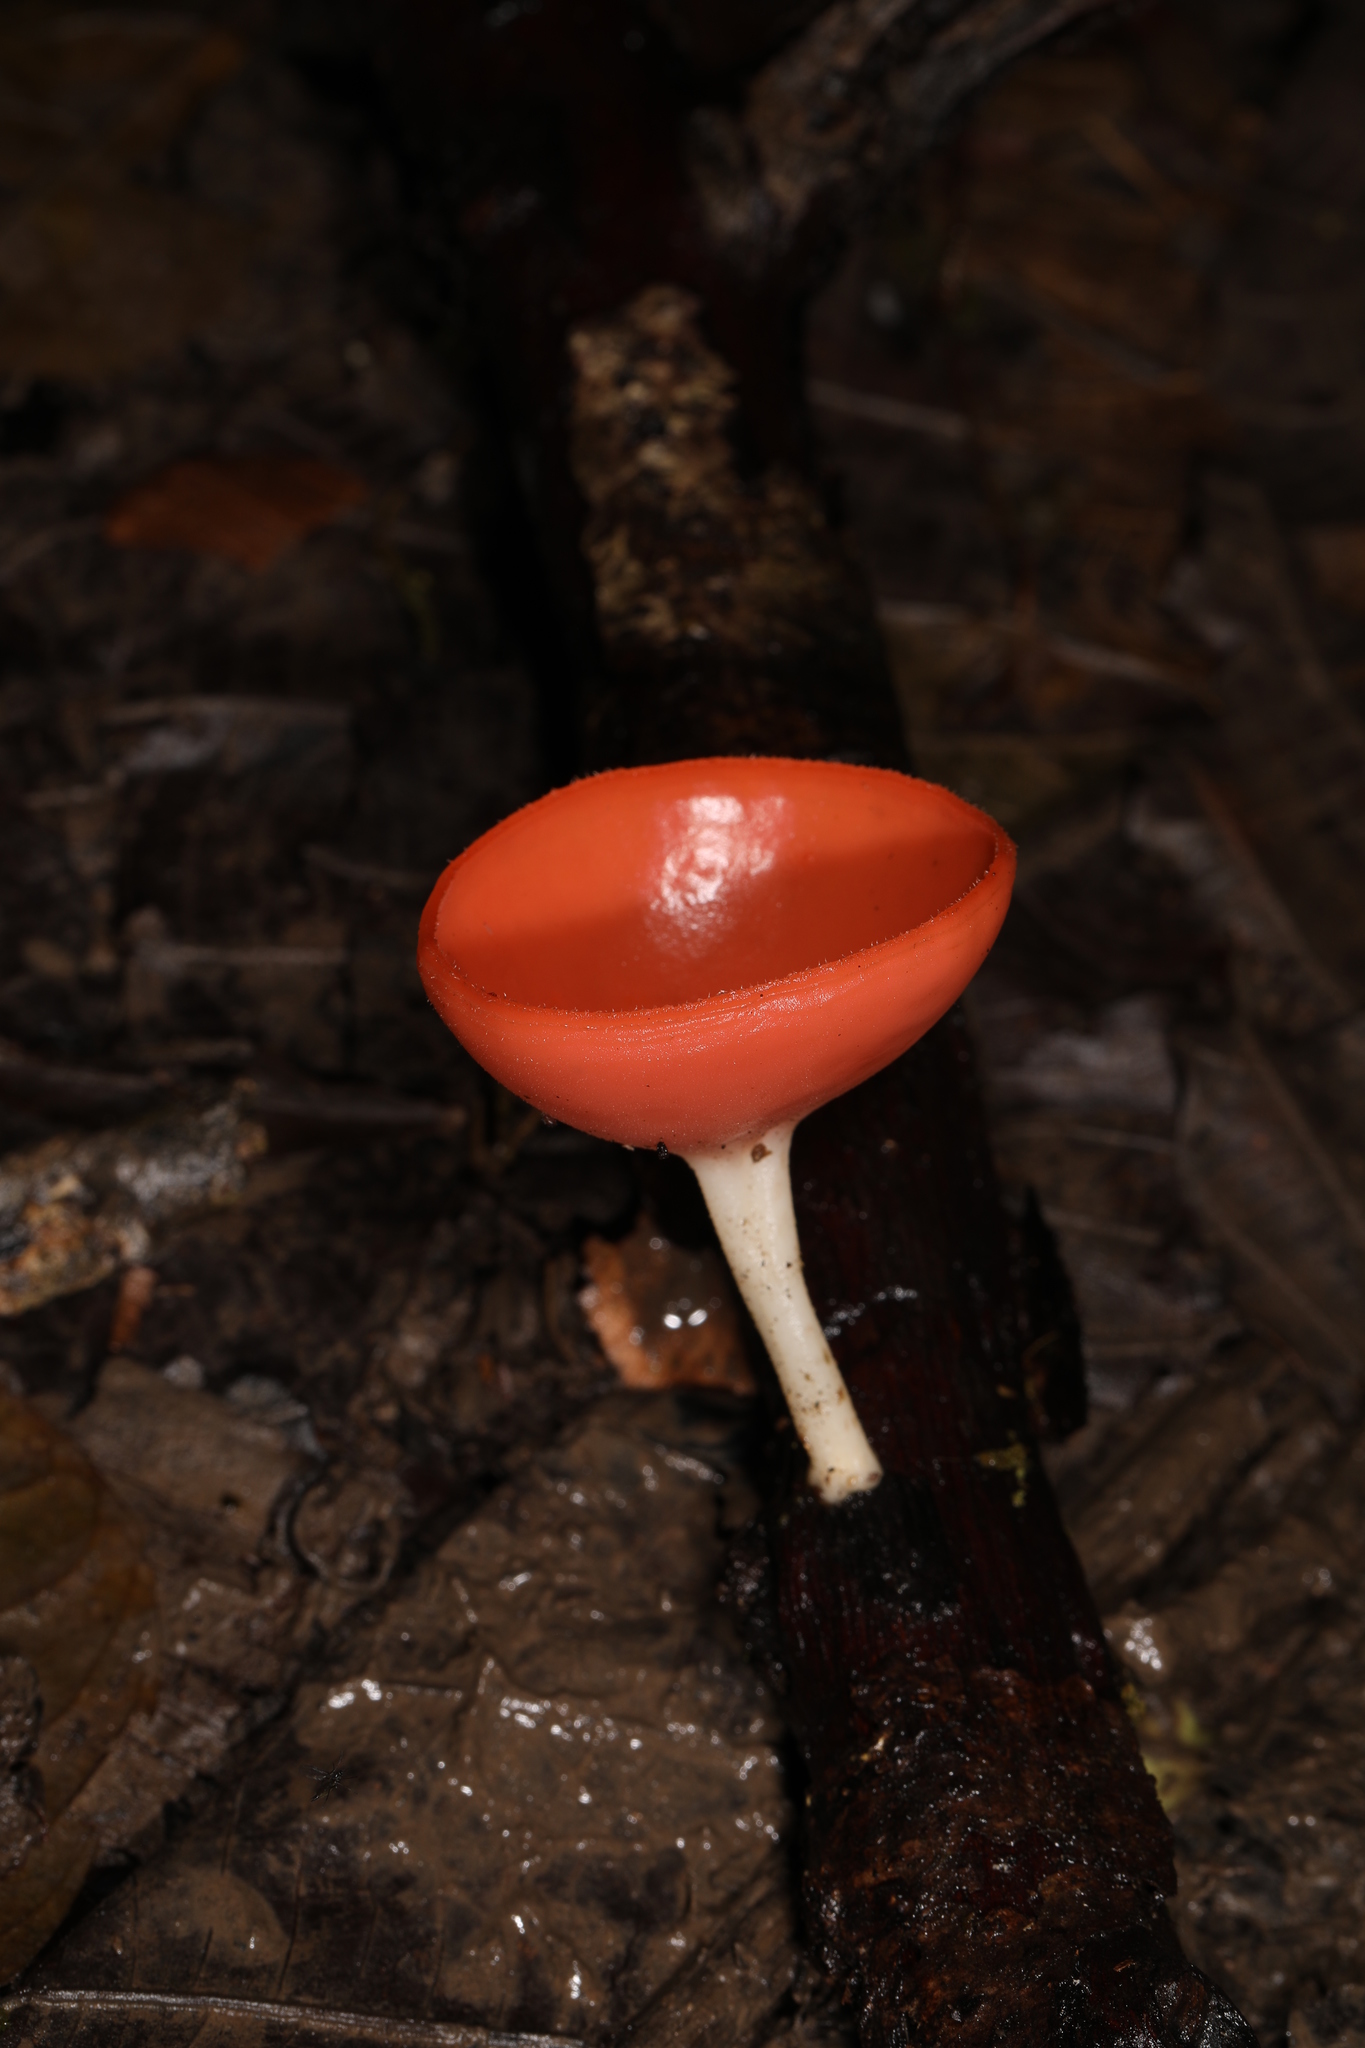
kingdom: Fungi
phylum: Ascomycota
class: Pezizomycetes
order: Pezizales
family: Sarcoscyphaceae
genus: Cookeina
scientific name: Cookeina speciosa
